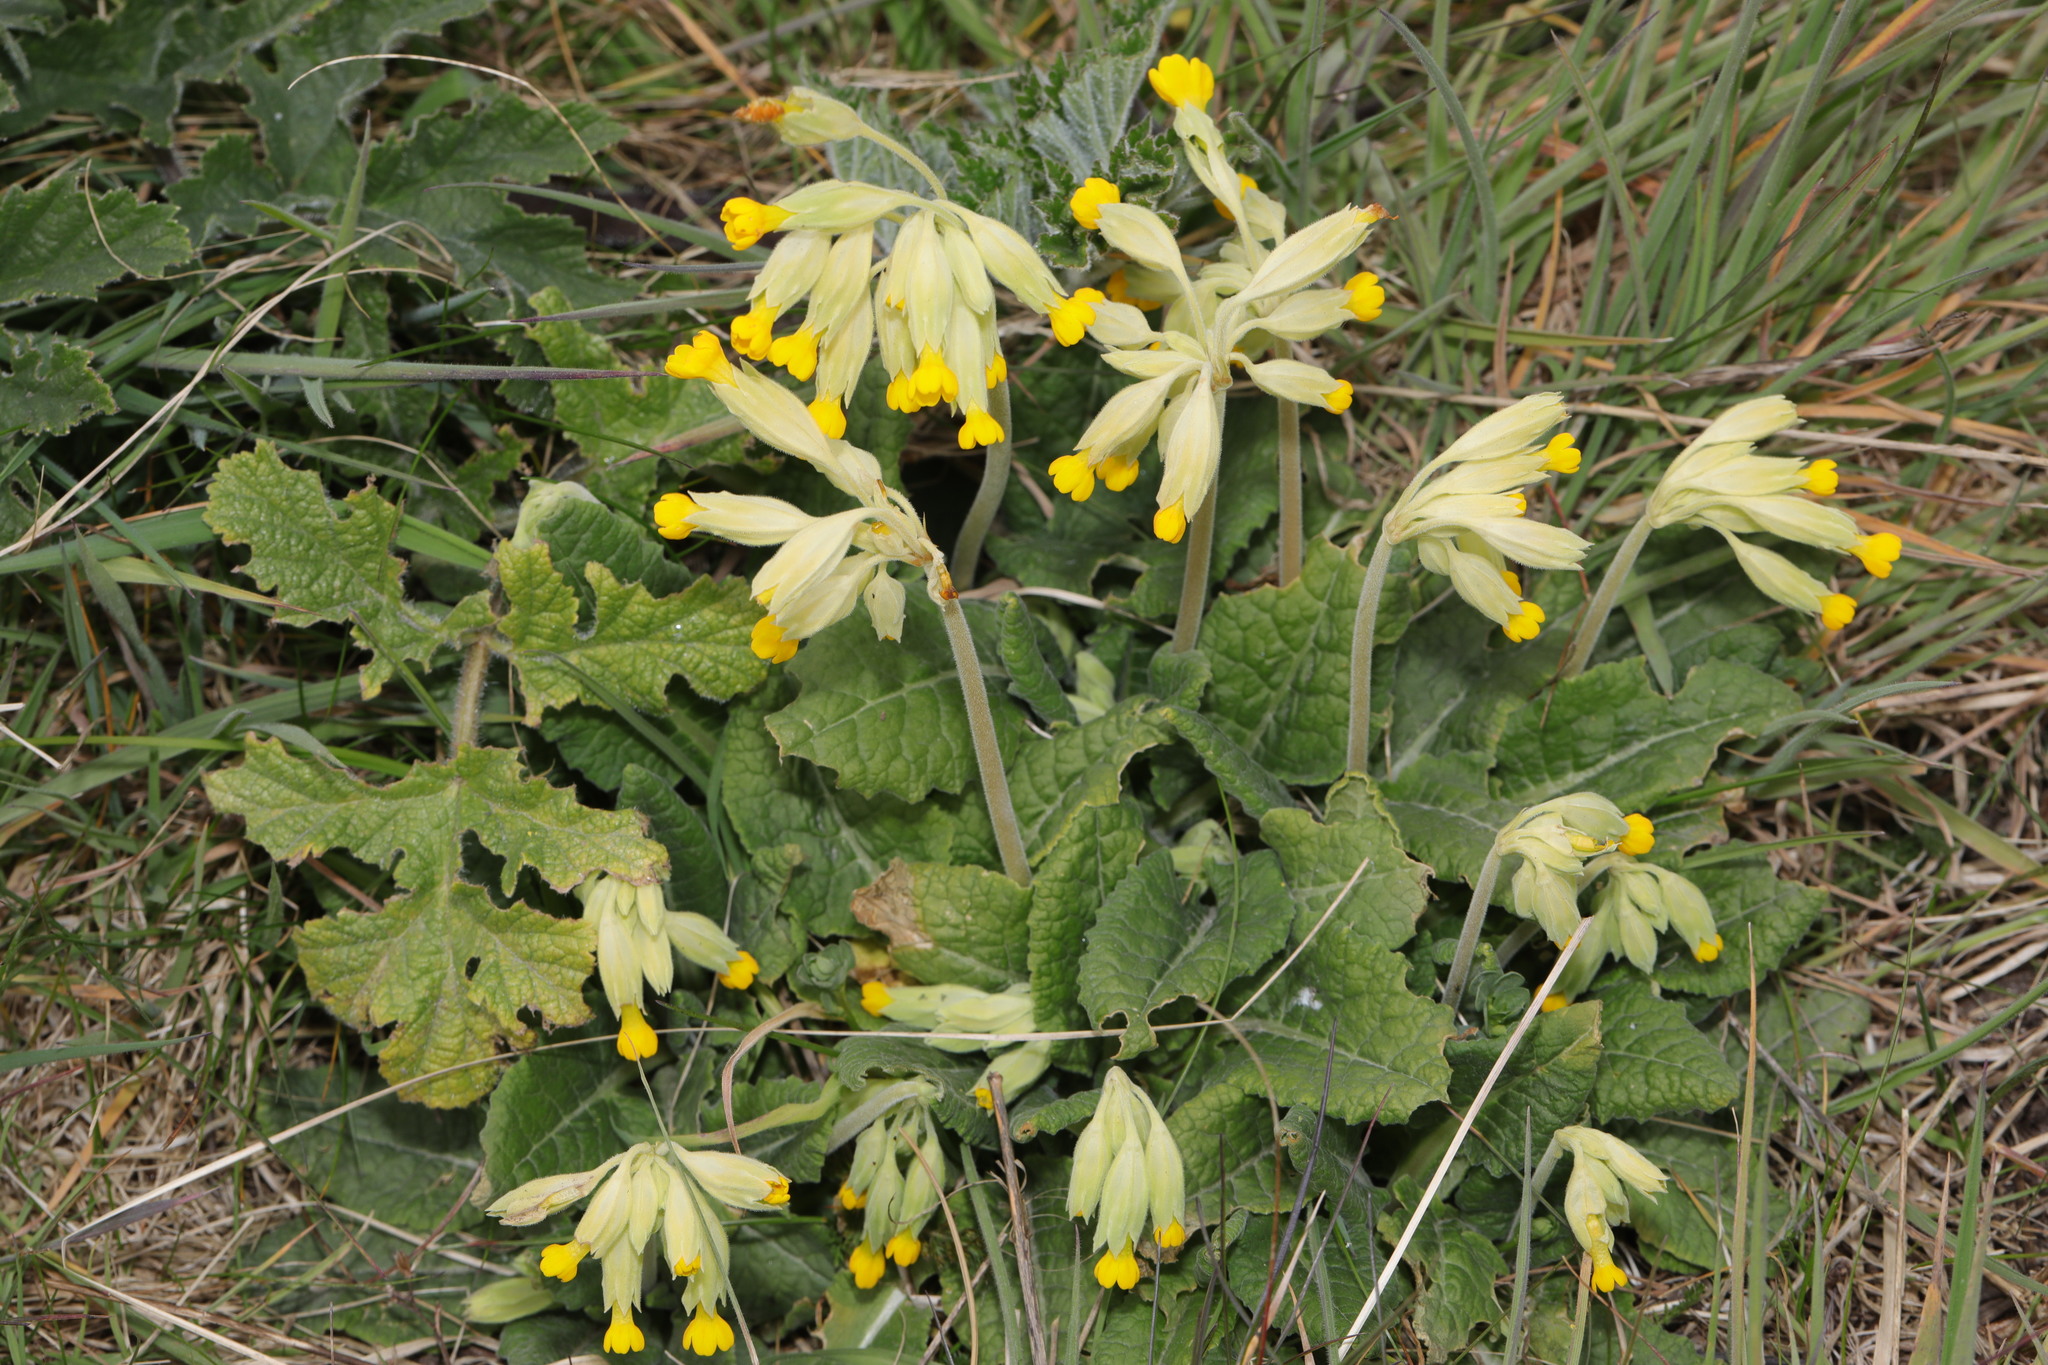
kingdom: Plantae
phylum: Tracheophyta
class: Magnoliopsida
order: Ericales
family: Primulaceae
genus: Primula
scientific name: Primula veris
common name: Cowslip
